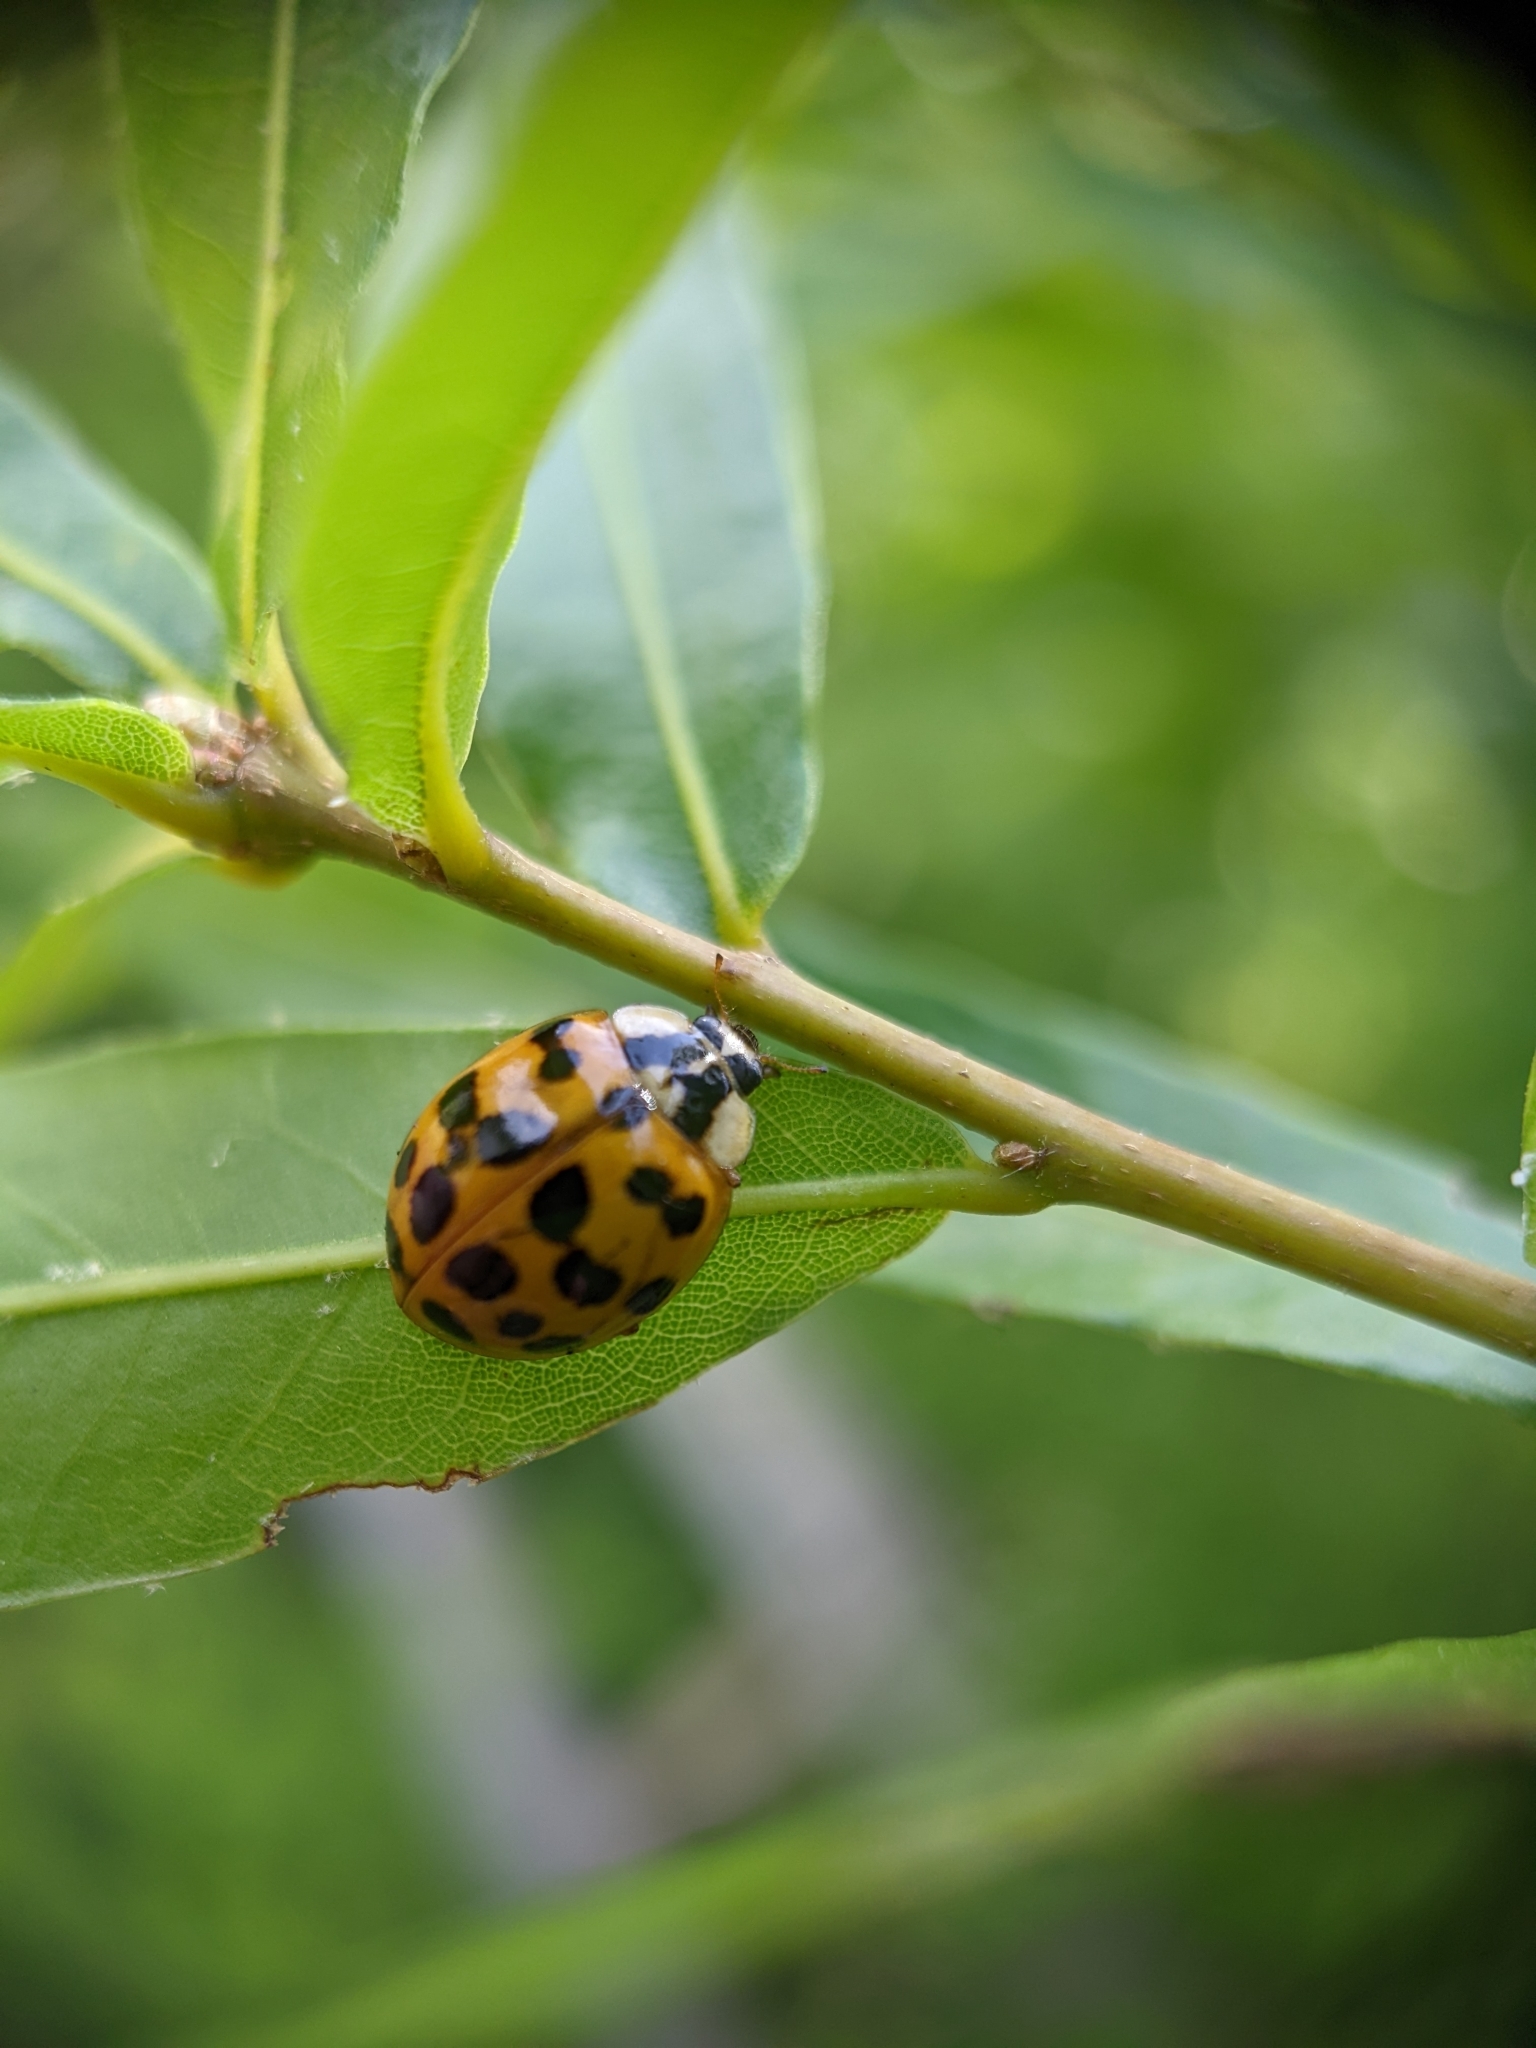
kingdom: Animalia
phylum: Arthropoda
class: Insecta
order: Coleoptera
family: Coccinellidae
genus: Harmonia
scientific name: Harmonia axyridis
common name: Harlequin ladybird
